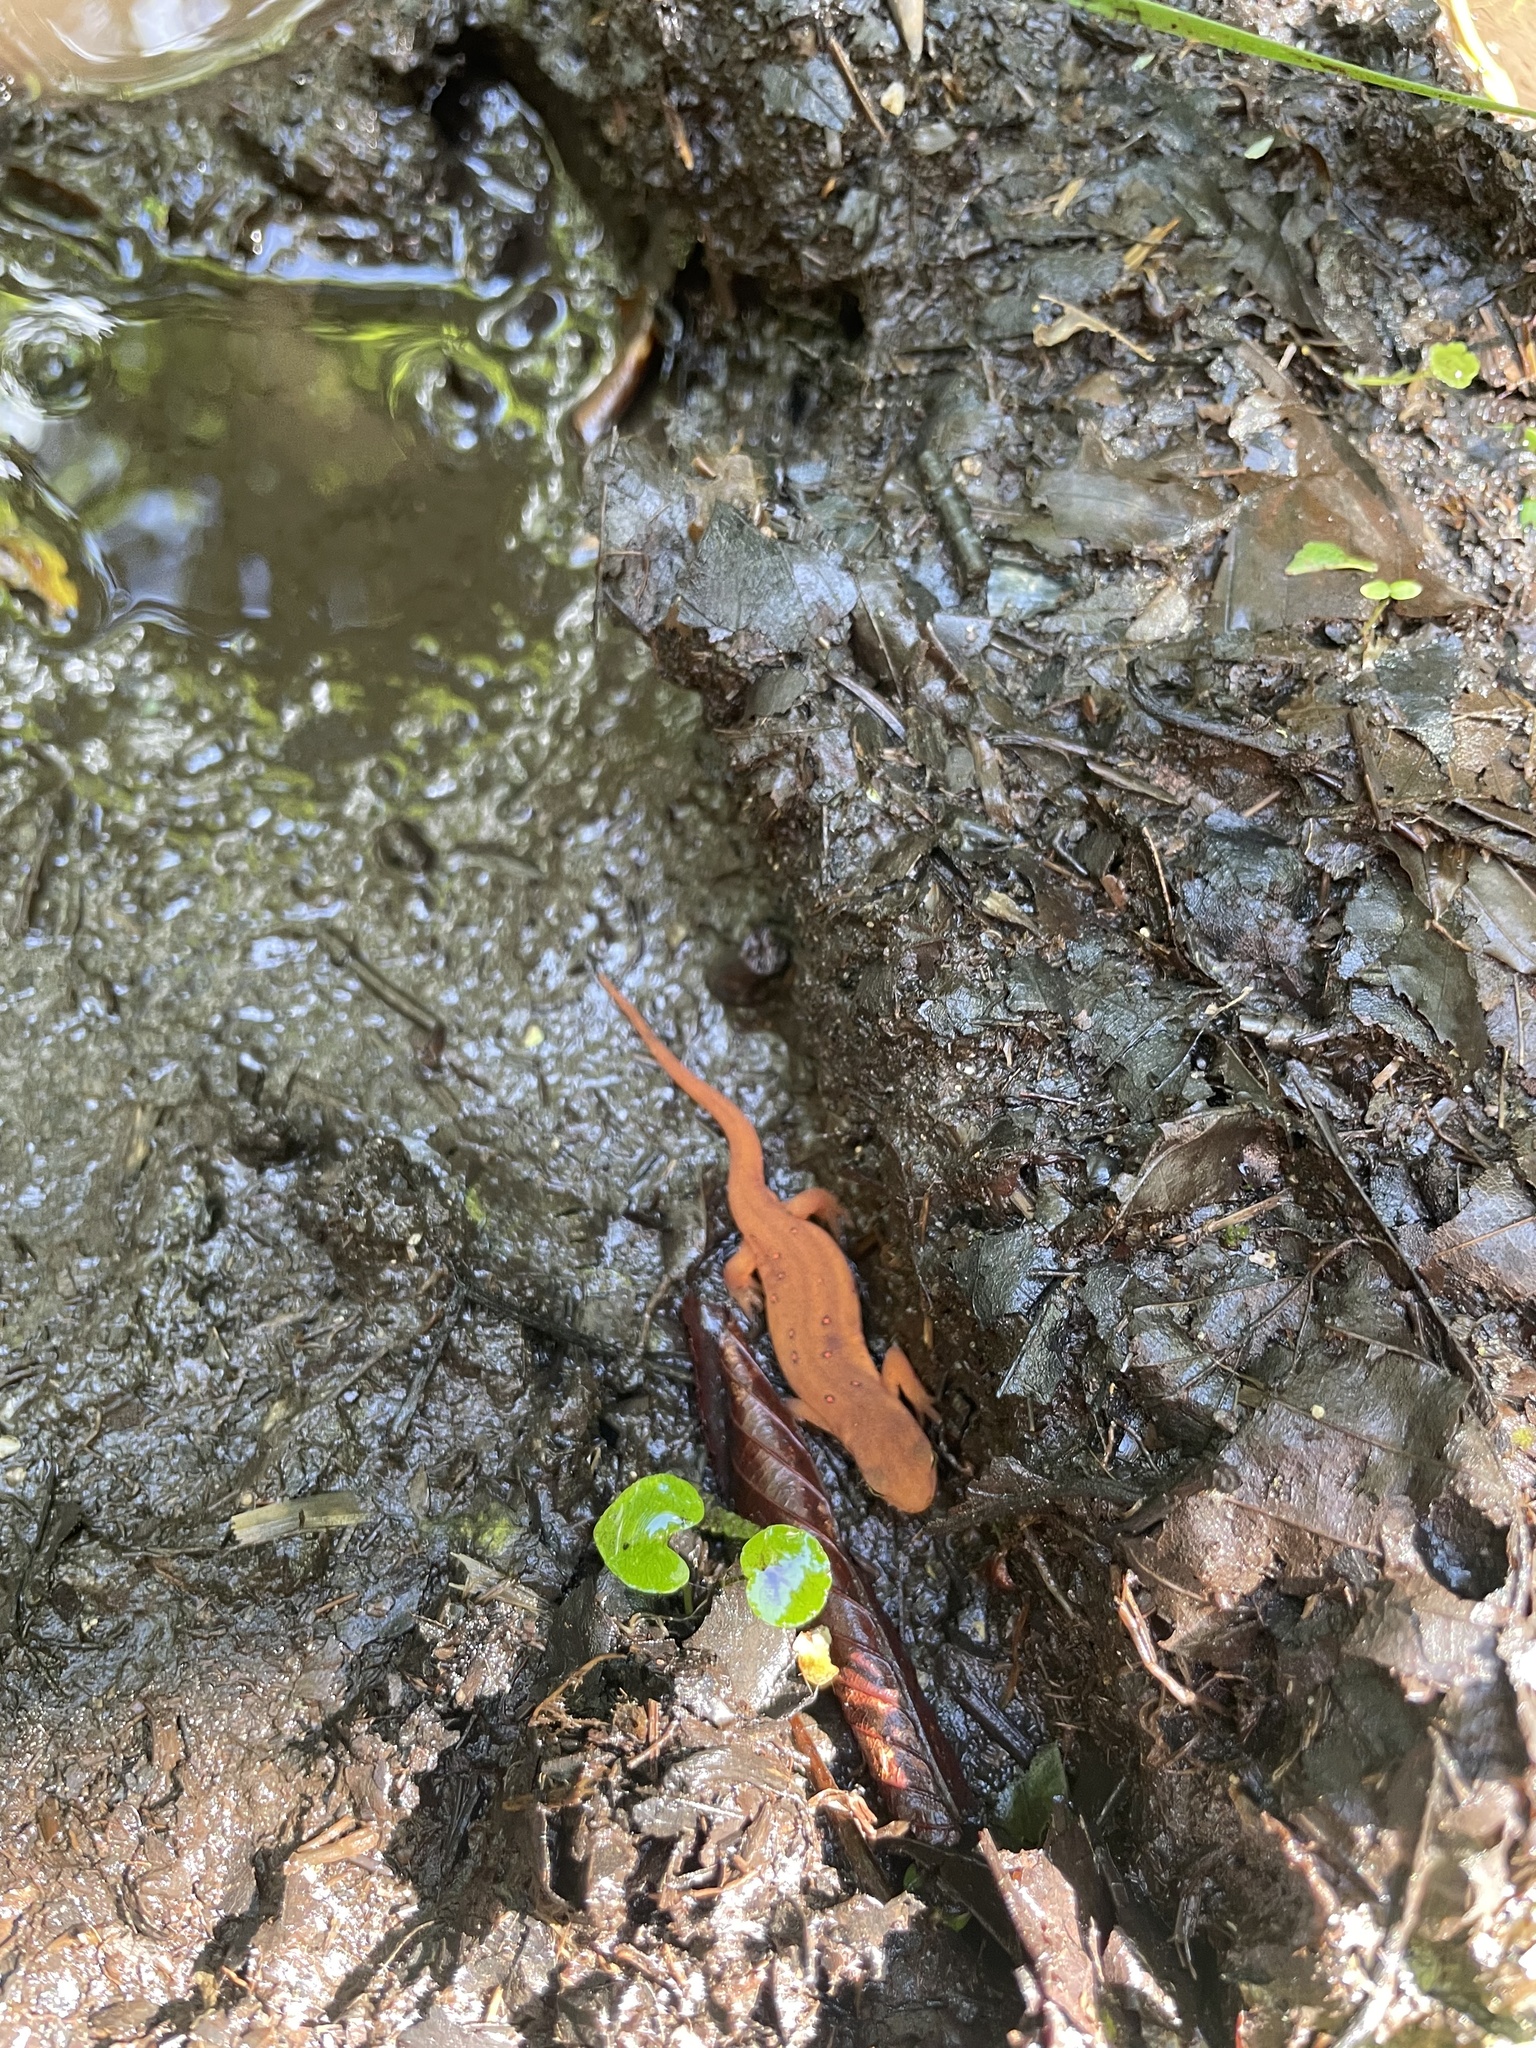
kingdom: Animalia
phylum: Chordata
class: Amphibia
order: Caudata
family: Salamandridae
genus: Notophthalmus
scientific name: Notophthalmus viridescens
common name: Eastern newt
